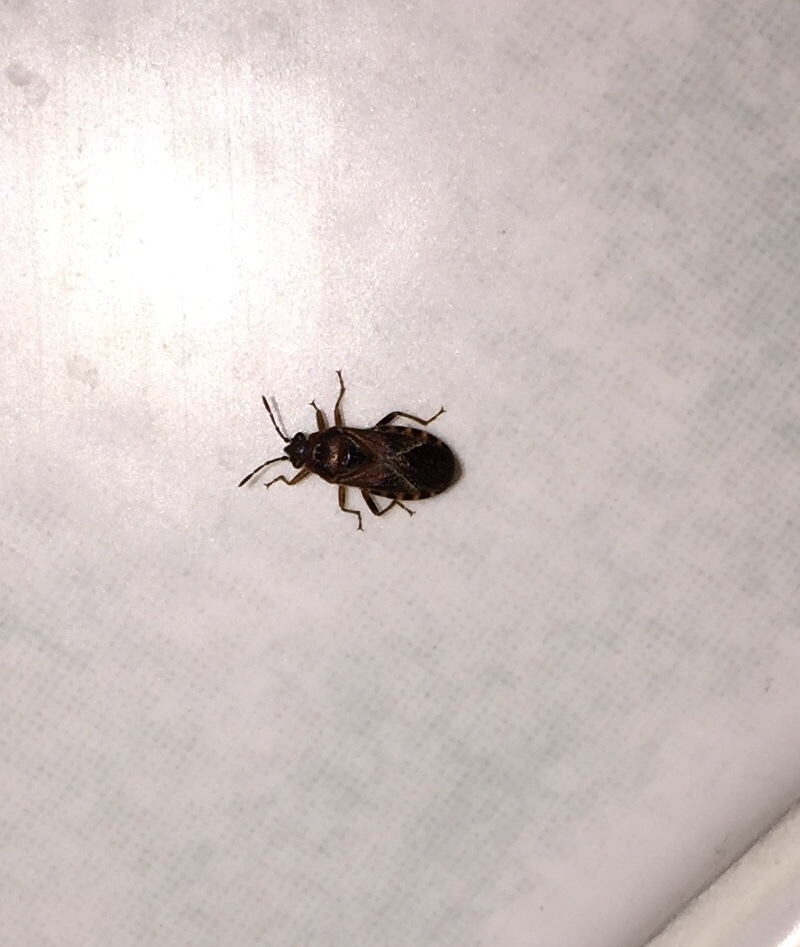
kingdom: Animalia
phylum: Arthropoda
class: Insecta
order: Hemiptera
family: Lygaeidae
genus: Arocatus
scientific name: Arocatus melanocephalus
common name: Lygaeid bug
